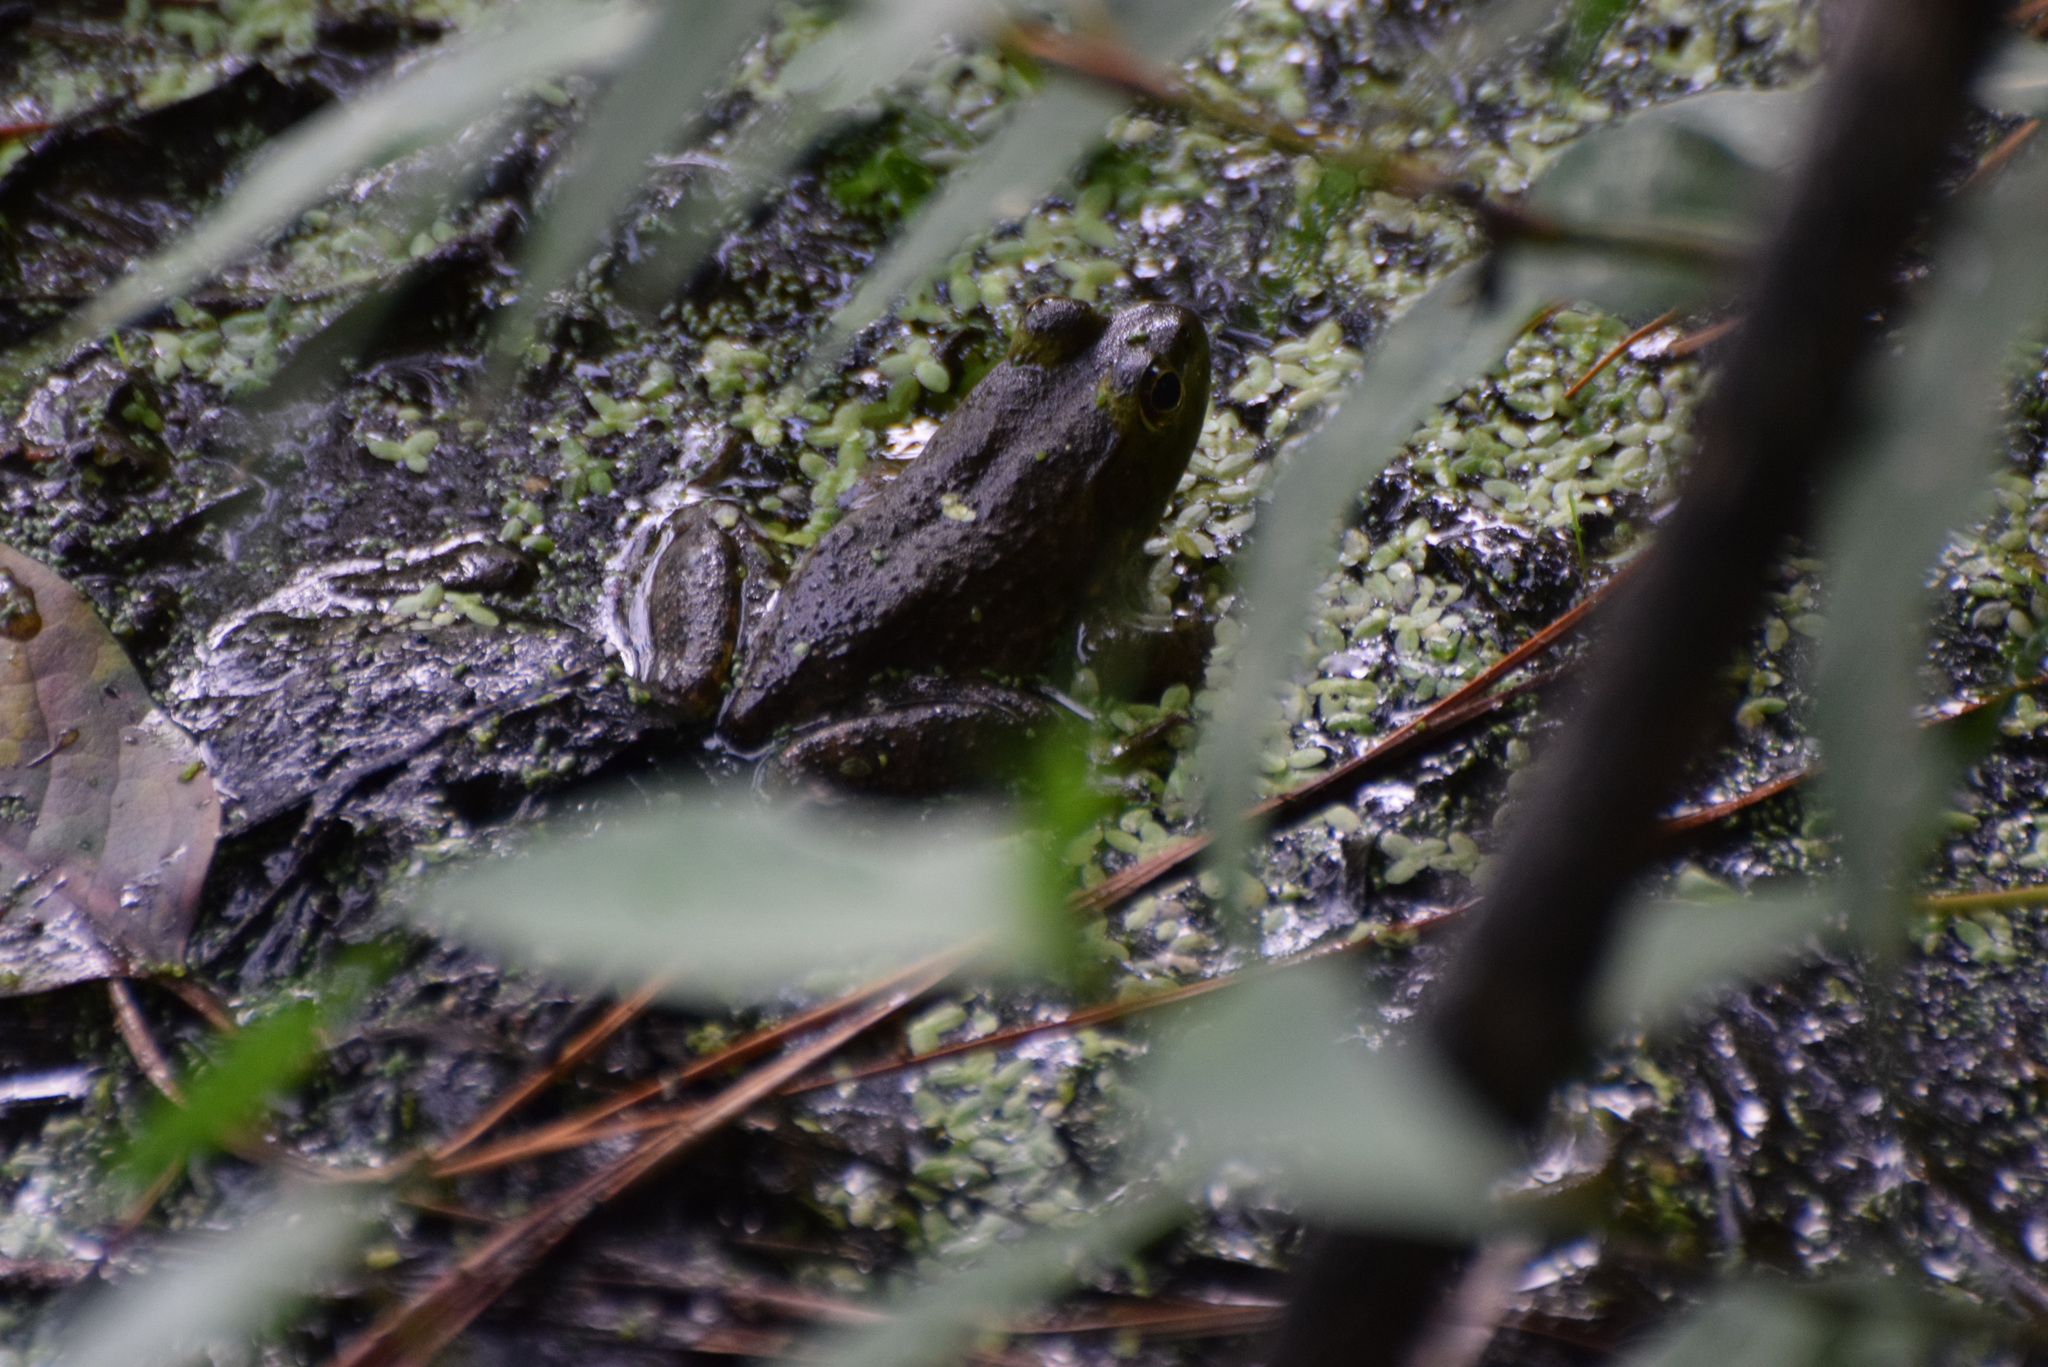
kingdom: Animalia
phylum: Chordata
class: Amphibia
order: Anura
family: Ranidae
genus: Lithobates
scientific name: Lithobates catesbeianus
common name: American bullfrog
